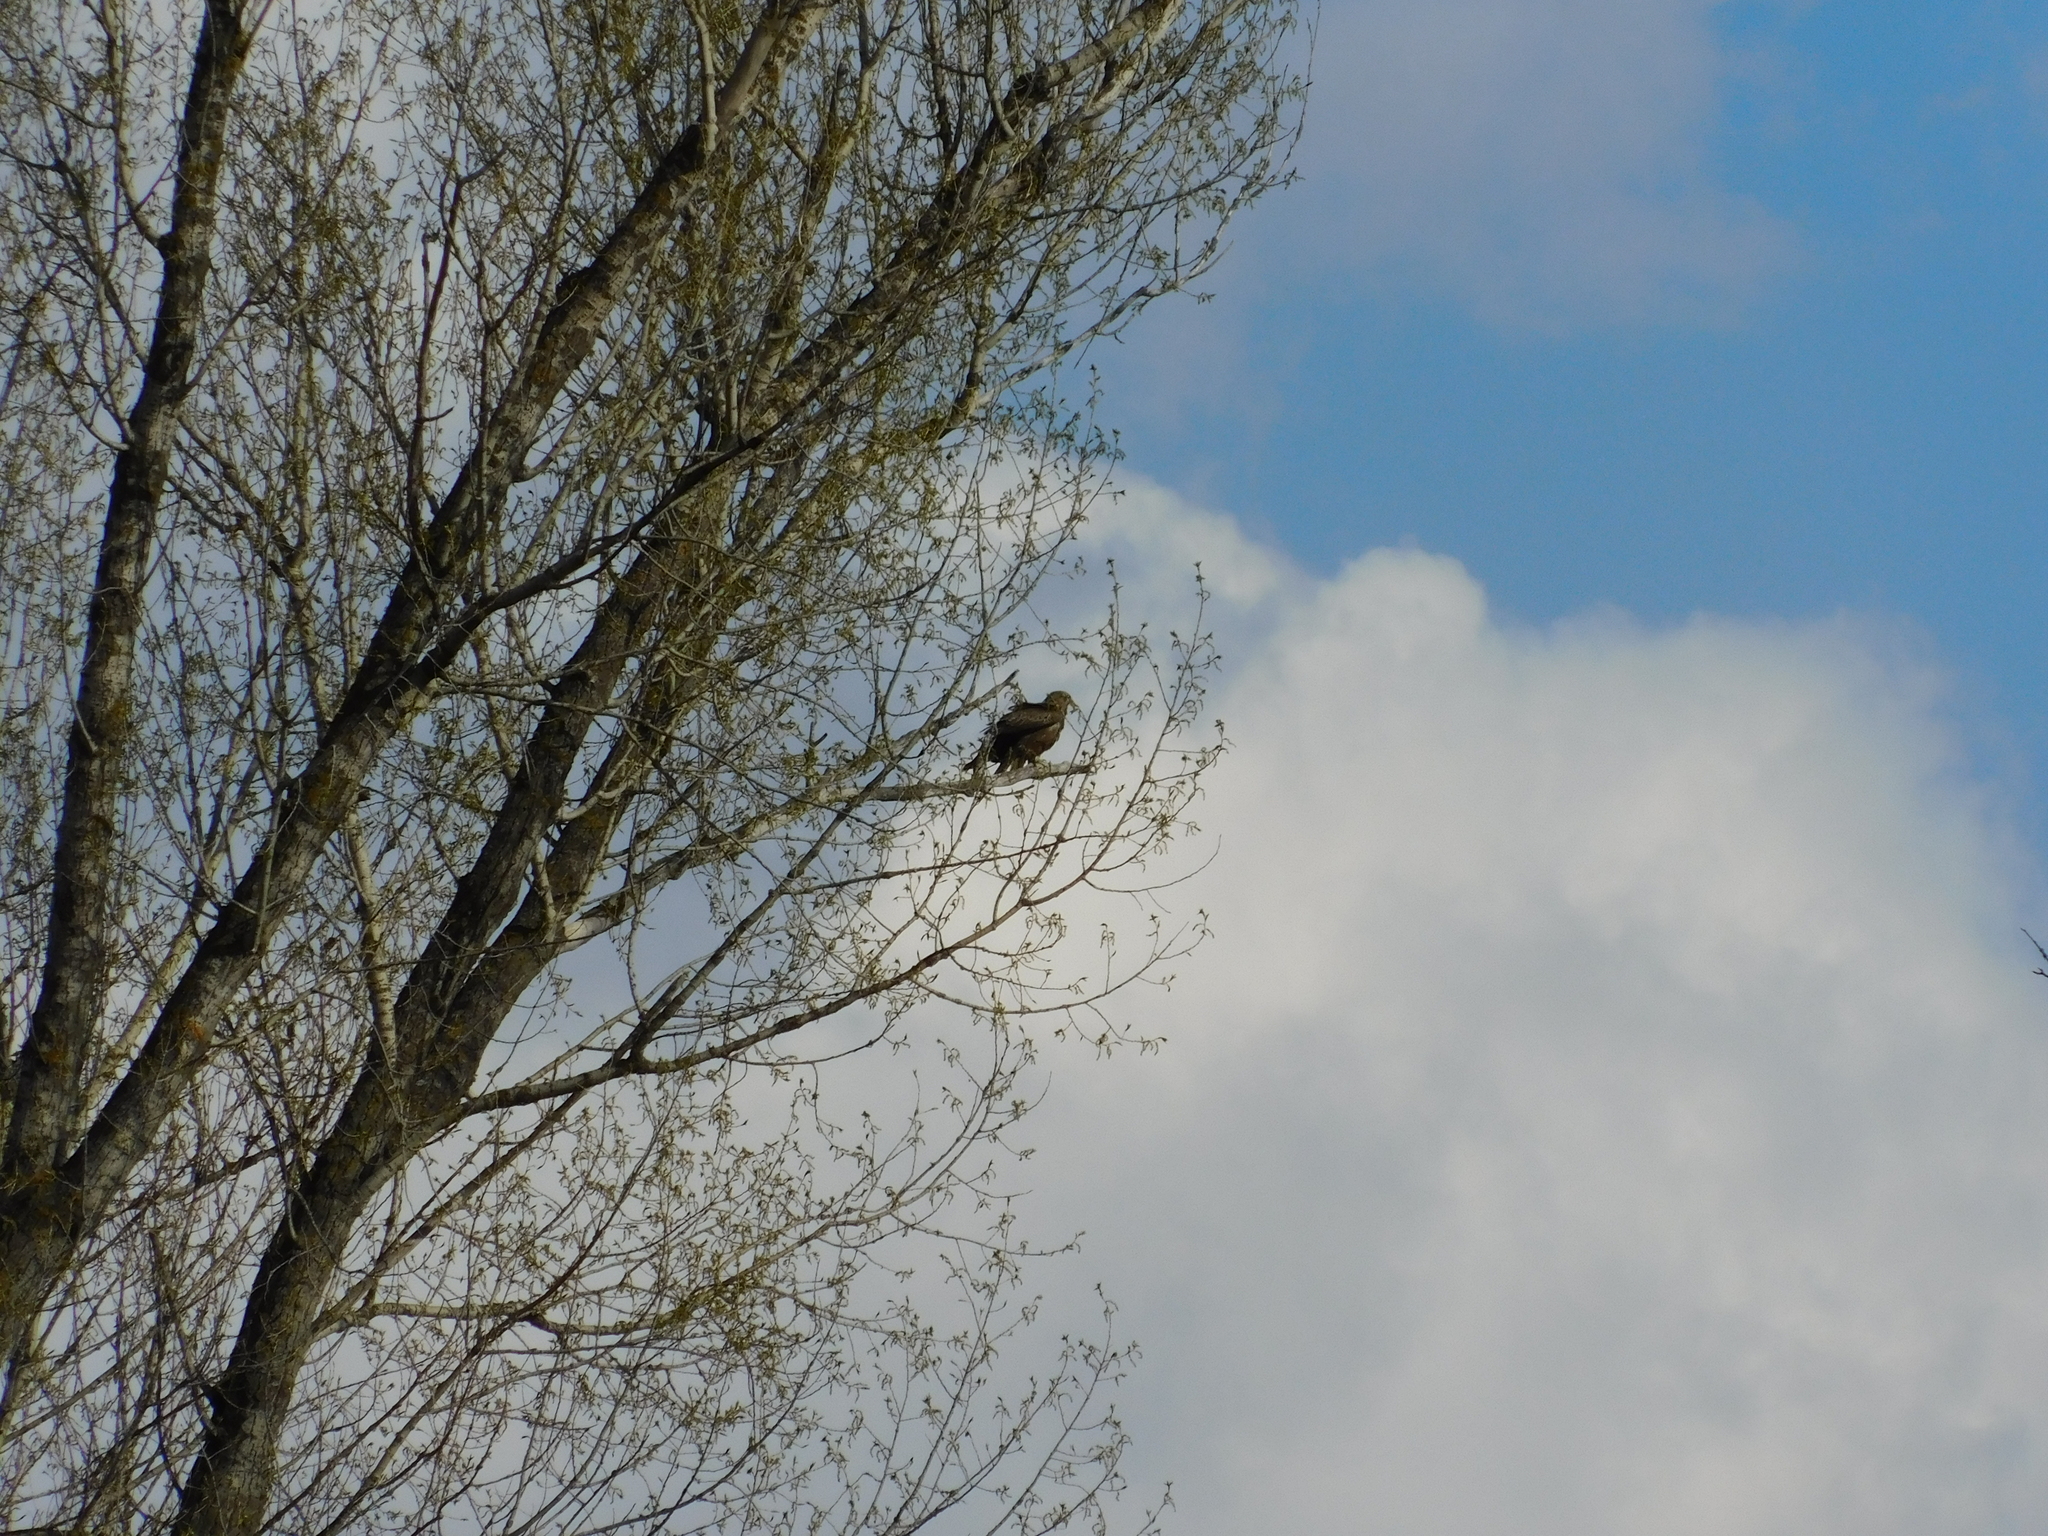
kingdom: Animalia
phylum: Chordata
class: Aves
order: Accipitriformes
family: Accipitridae
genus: Milvus
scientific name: Milvus migrans
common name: Black kite
